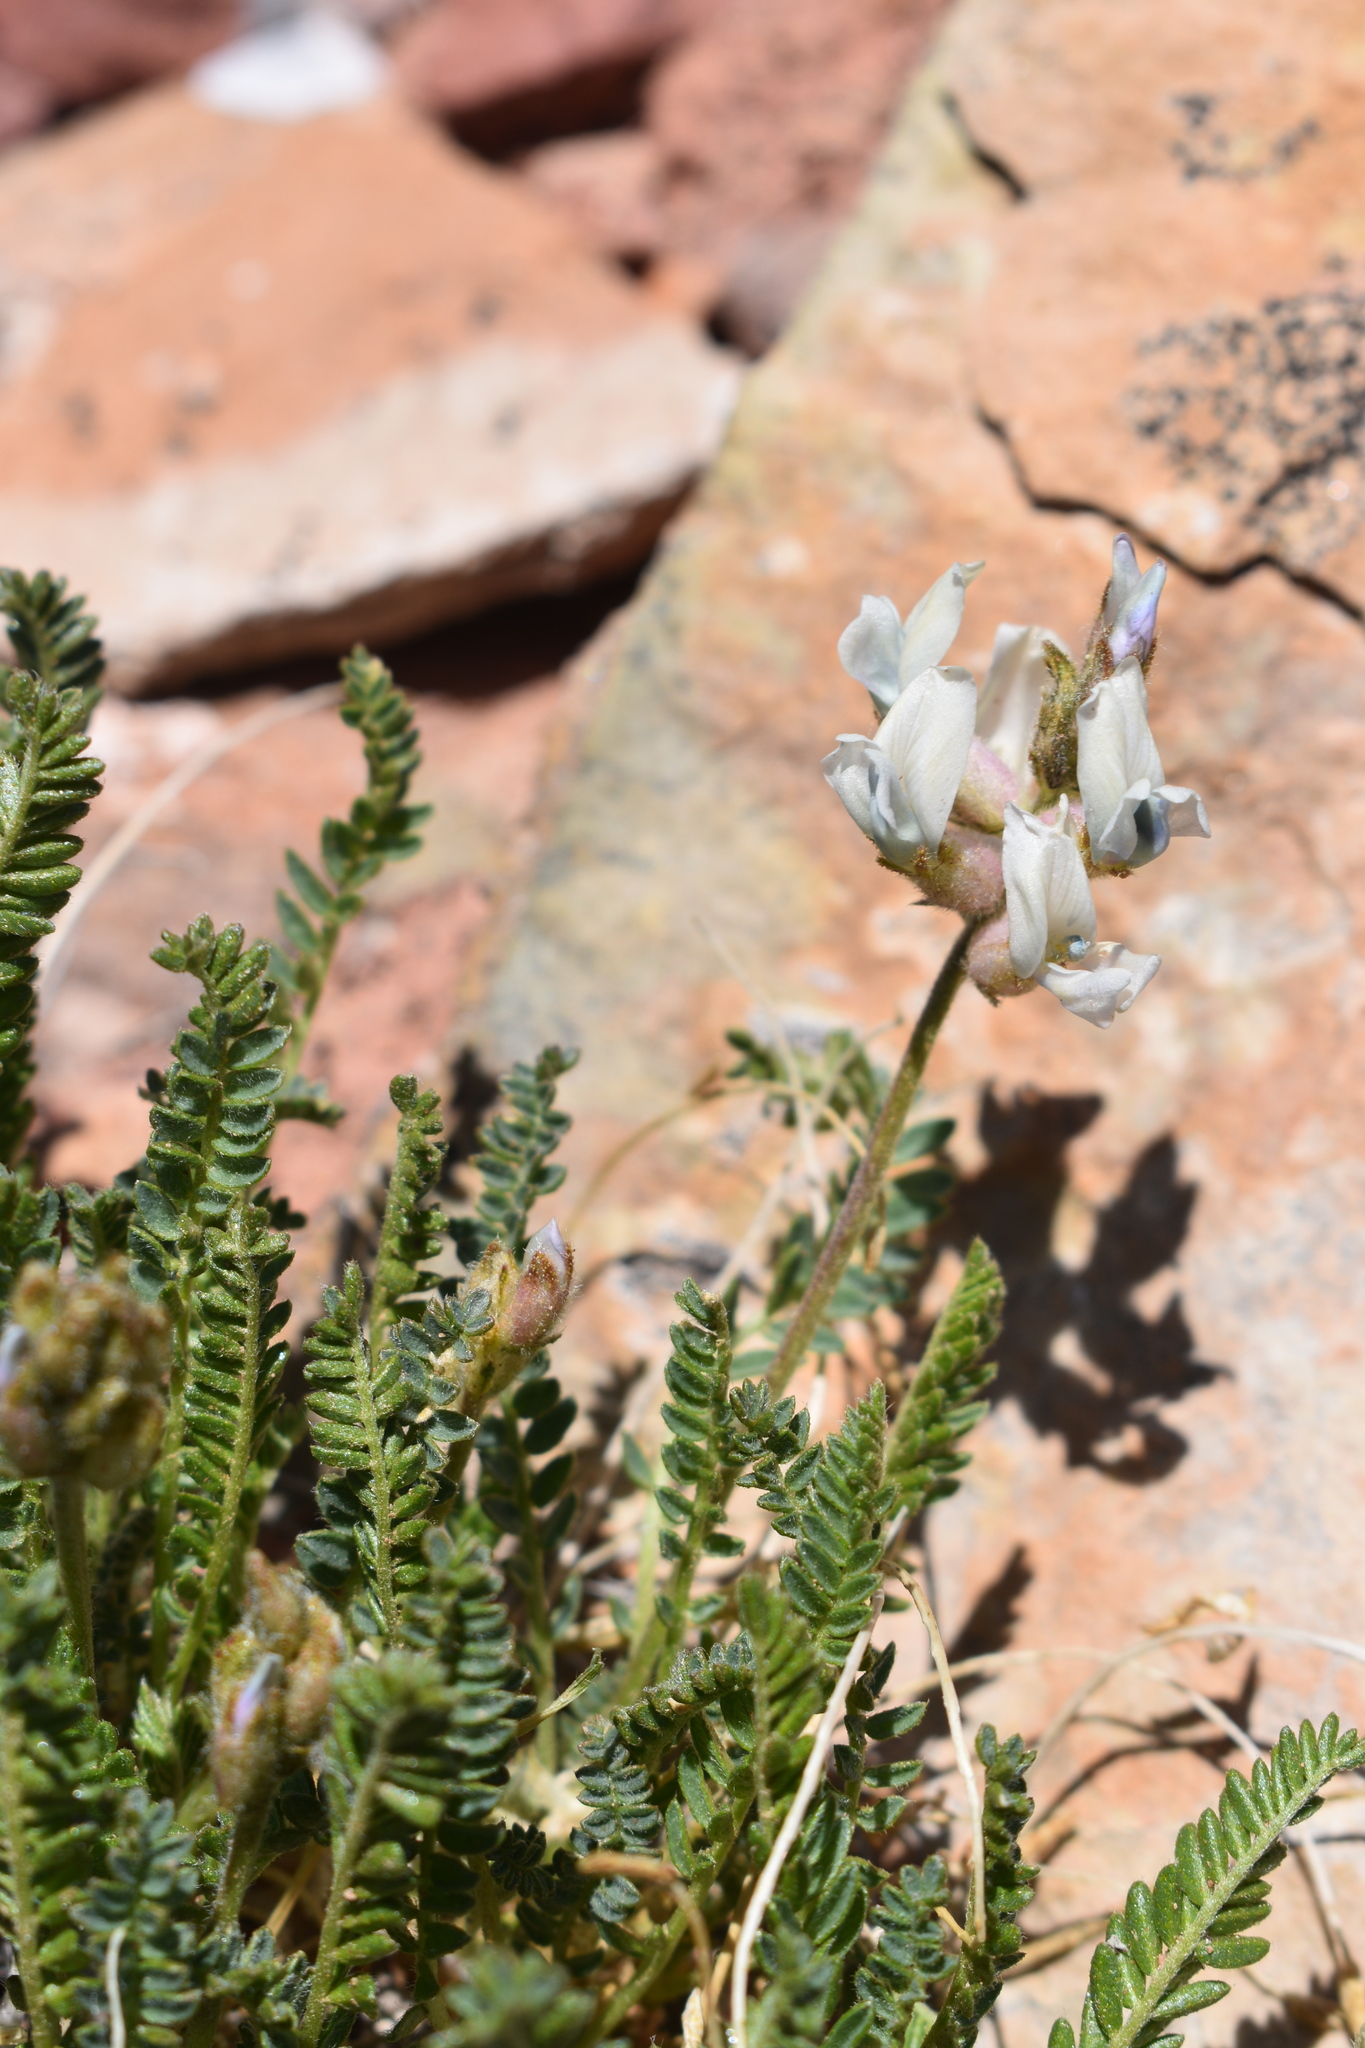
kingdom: Plantae
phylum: Tracheophyta
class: Magnoliopsida
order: Fabales
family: Fabaceae
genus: Oxytropis
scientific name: Oxytropis borealis
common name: Boreal locoweed
